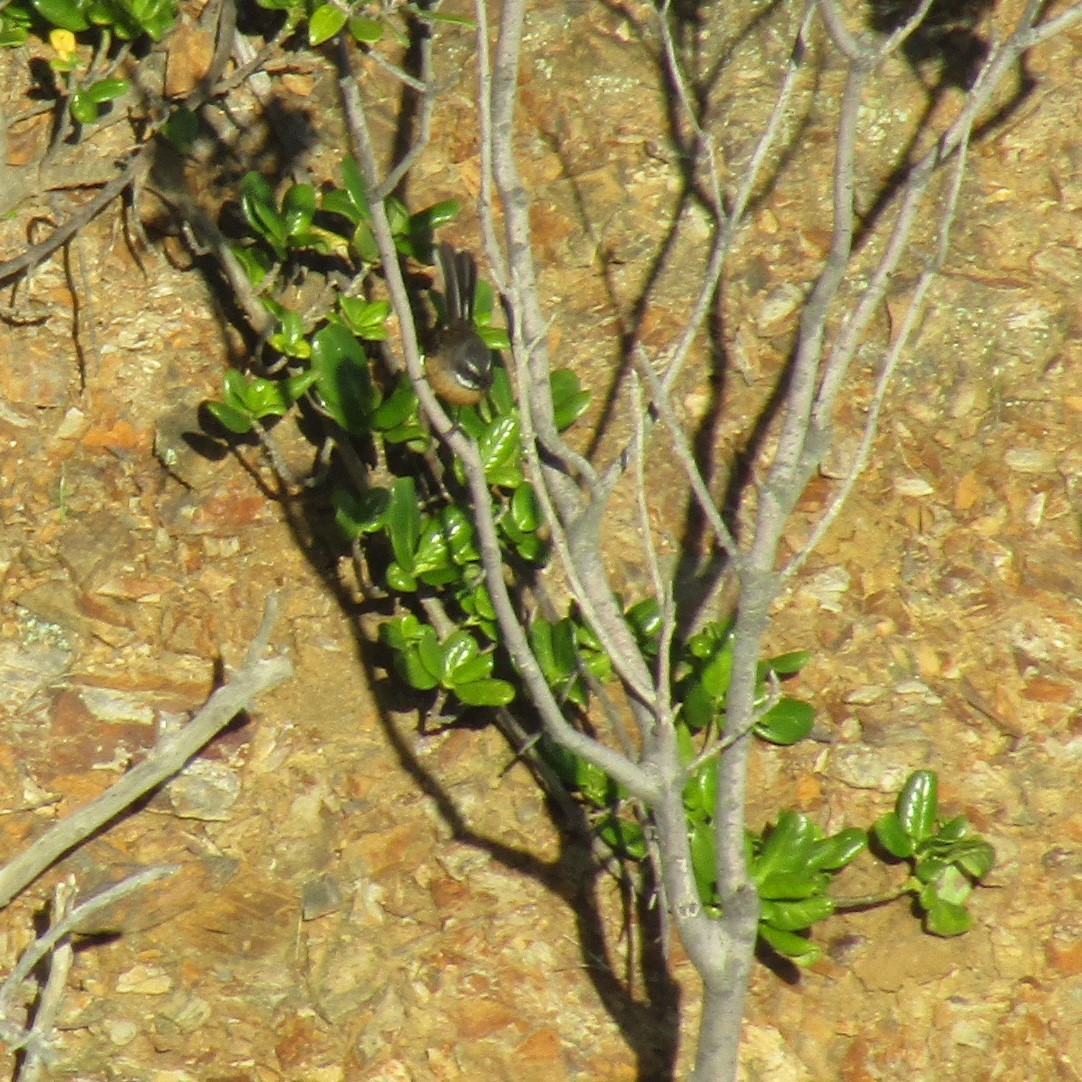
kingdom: Animalia
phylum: Chordata
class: Aves
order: Passeriformes
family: Rhipiduridae
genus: Rhipidura
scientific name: Rhipidura fuliginosa
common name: New zealand fantail
